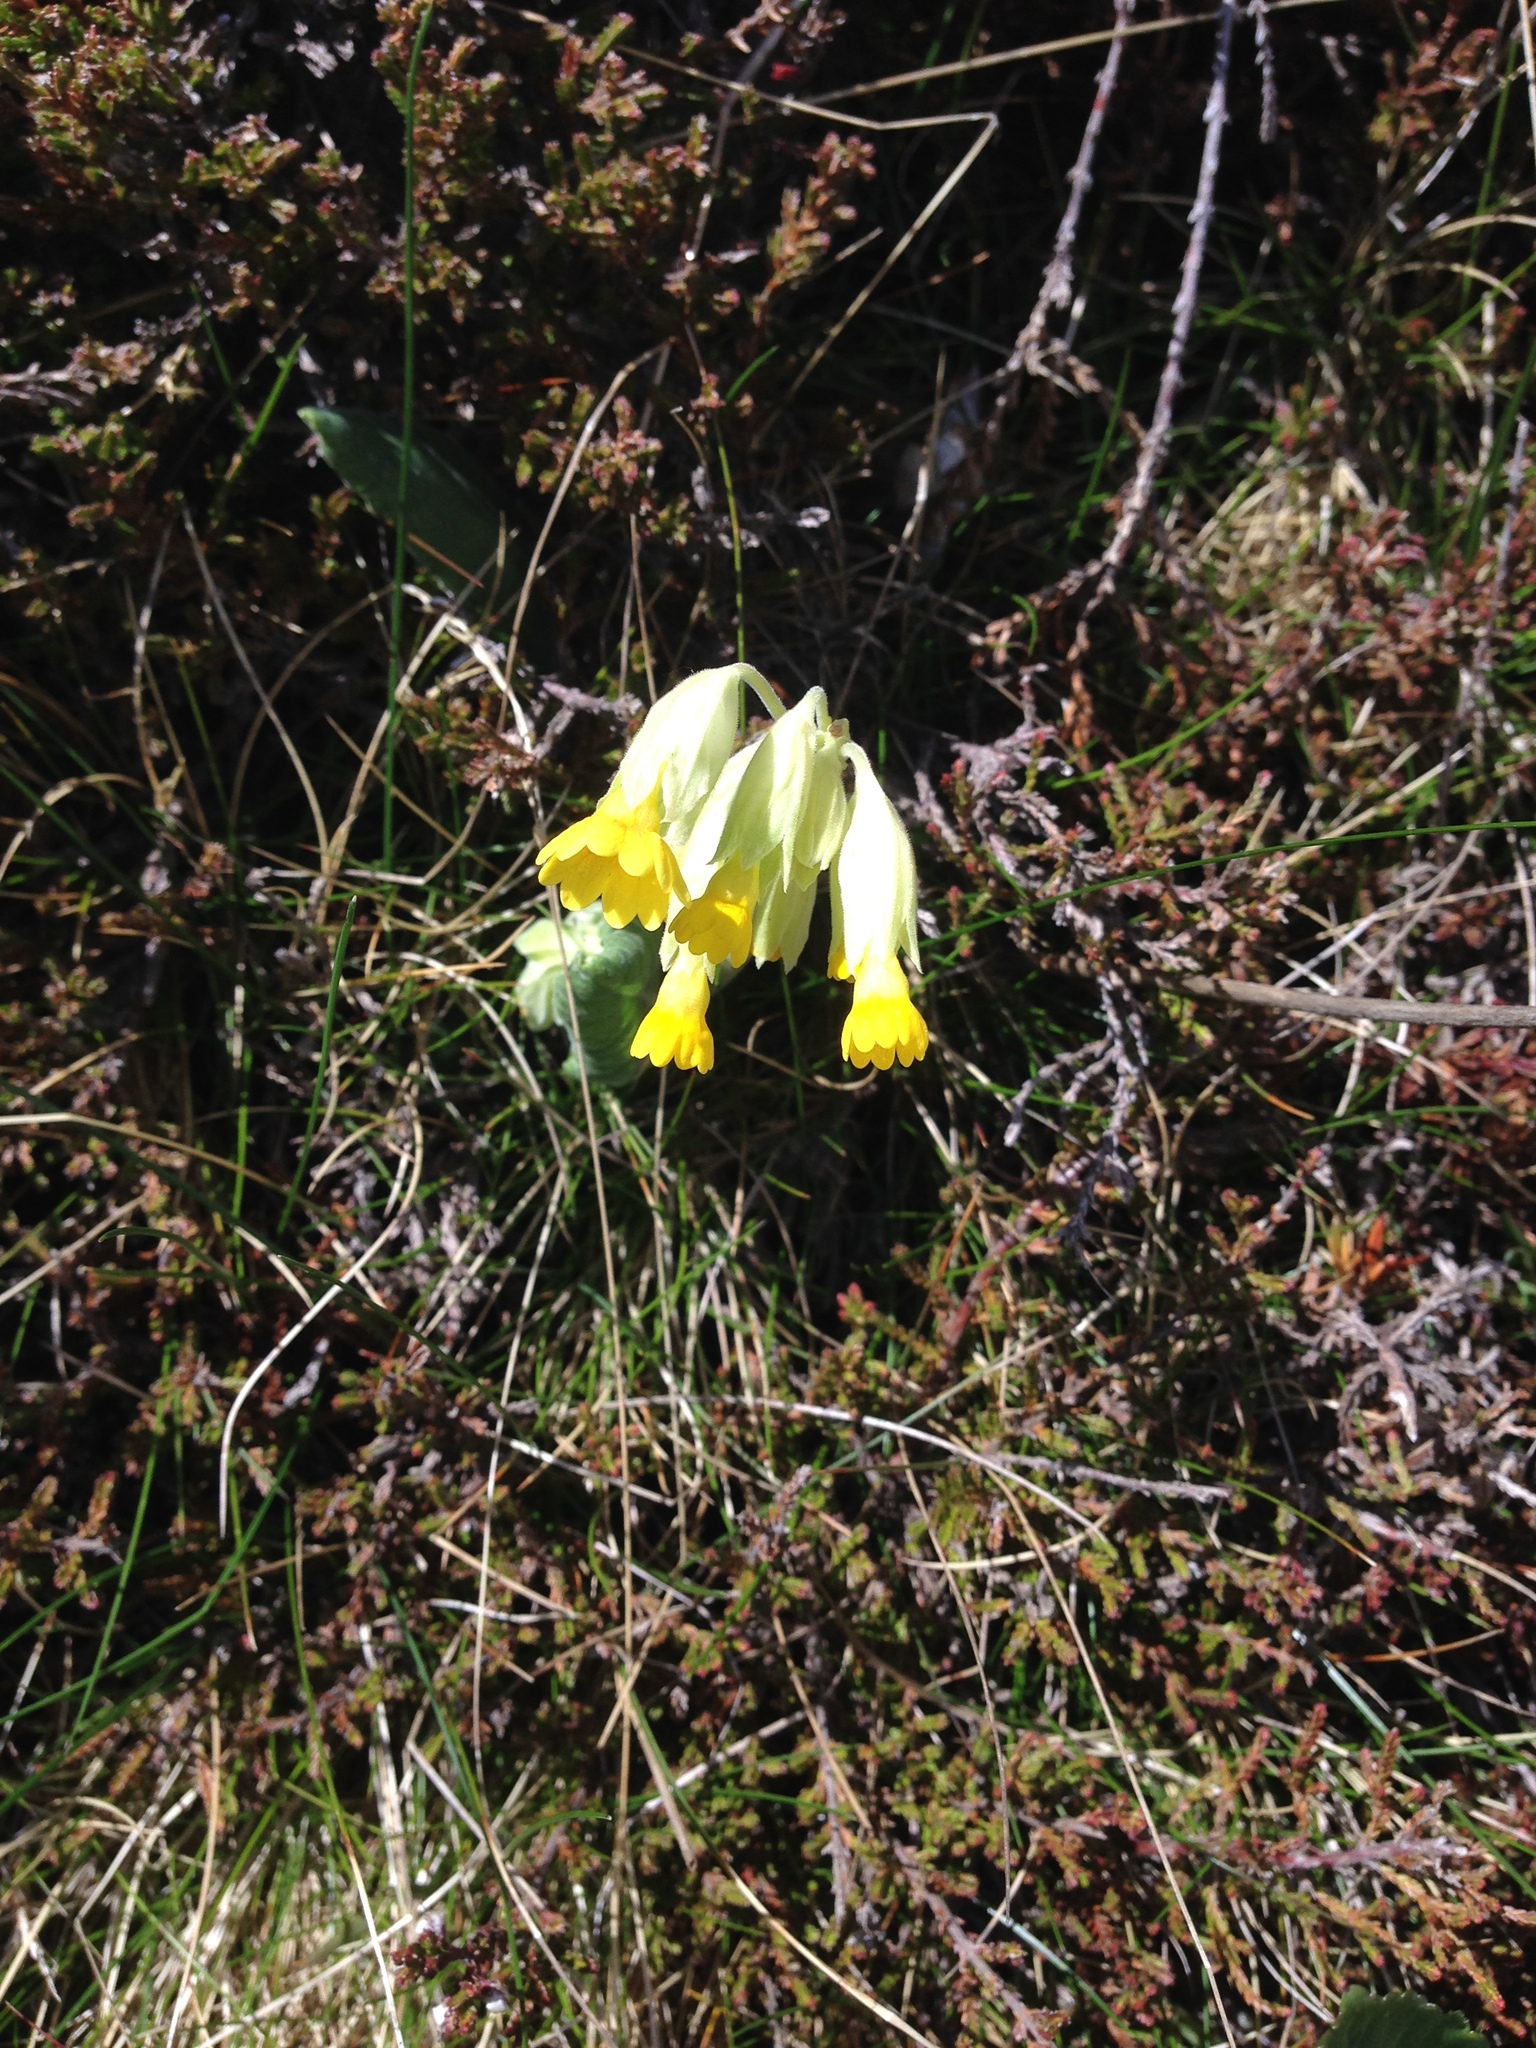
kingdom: Plantae
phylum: Tracheophyta
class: Magnoliopsida
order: Ericales
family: Primulaceae
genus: Primula
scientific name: Primula veris
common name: Cowslip
